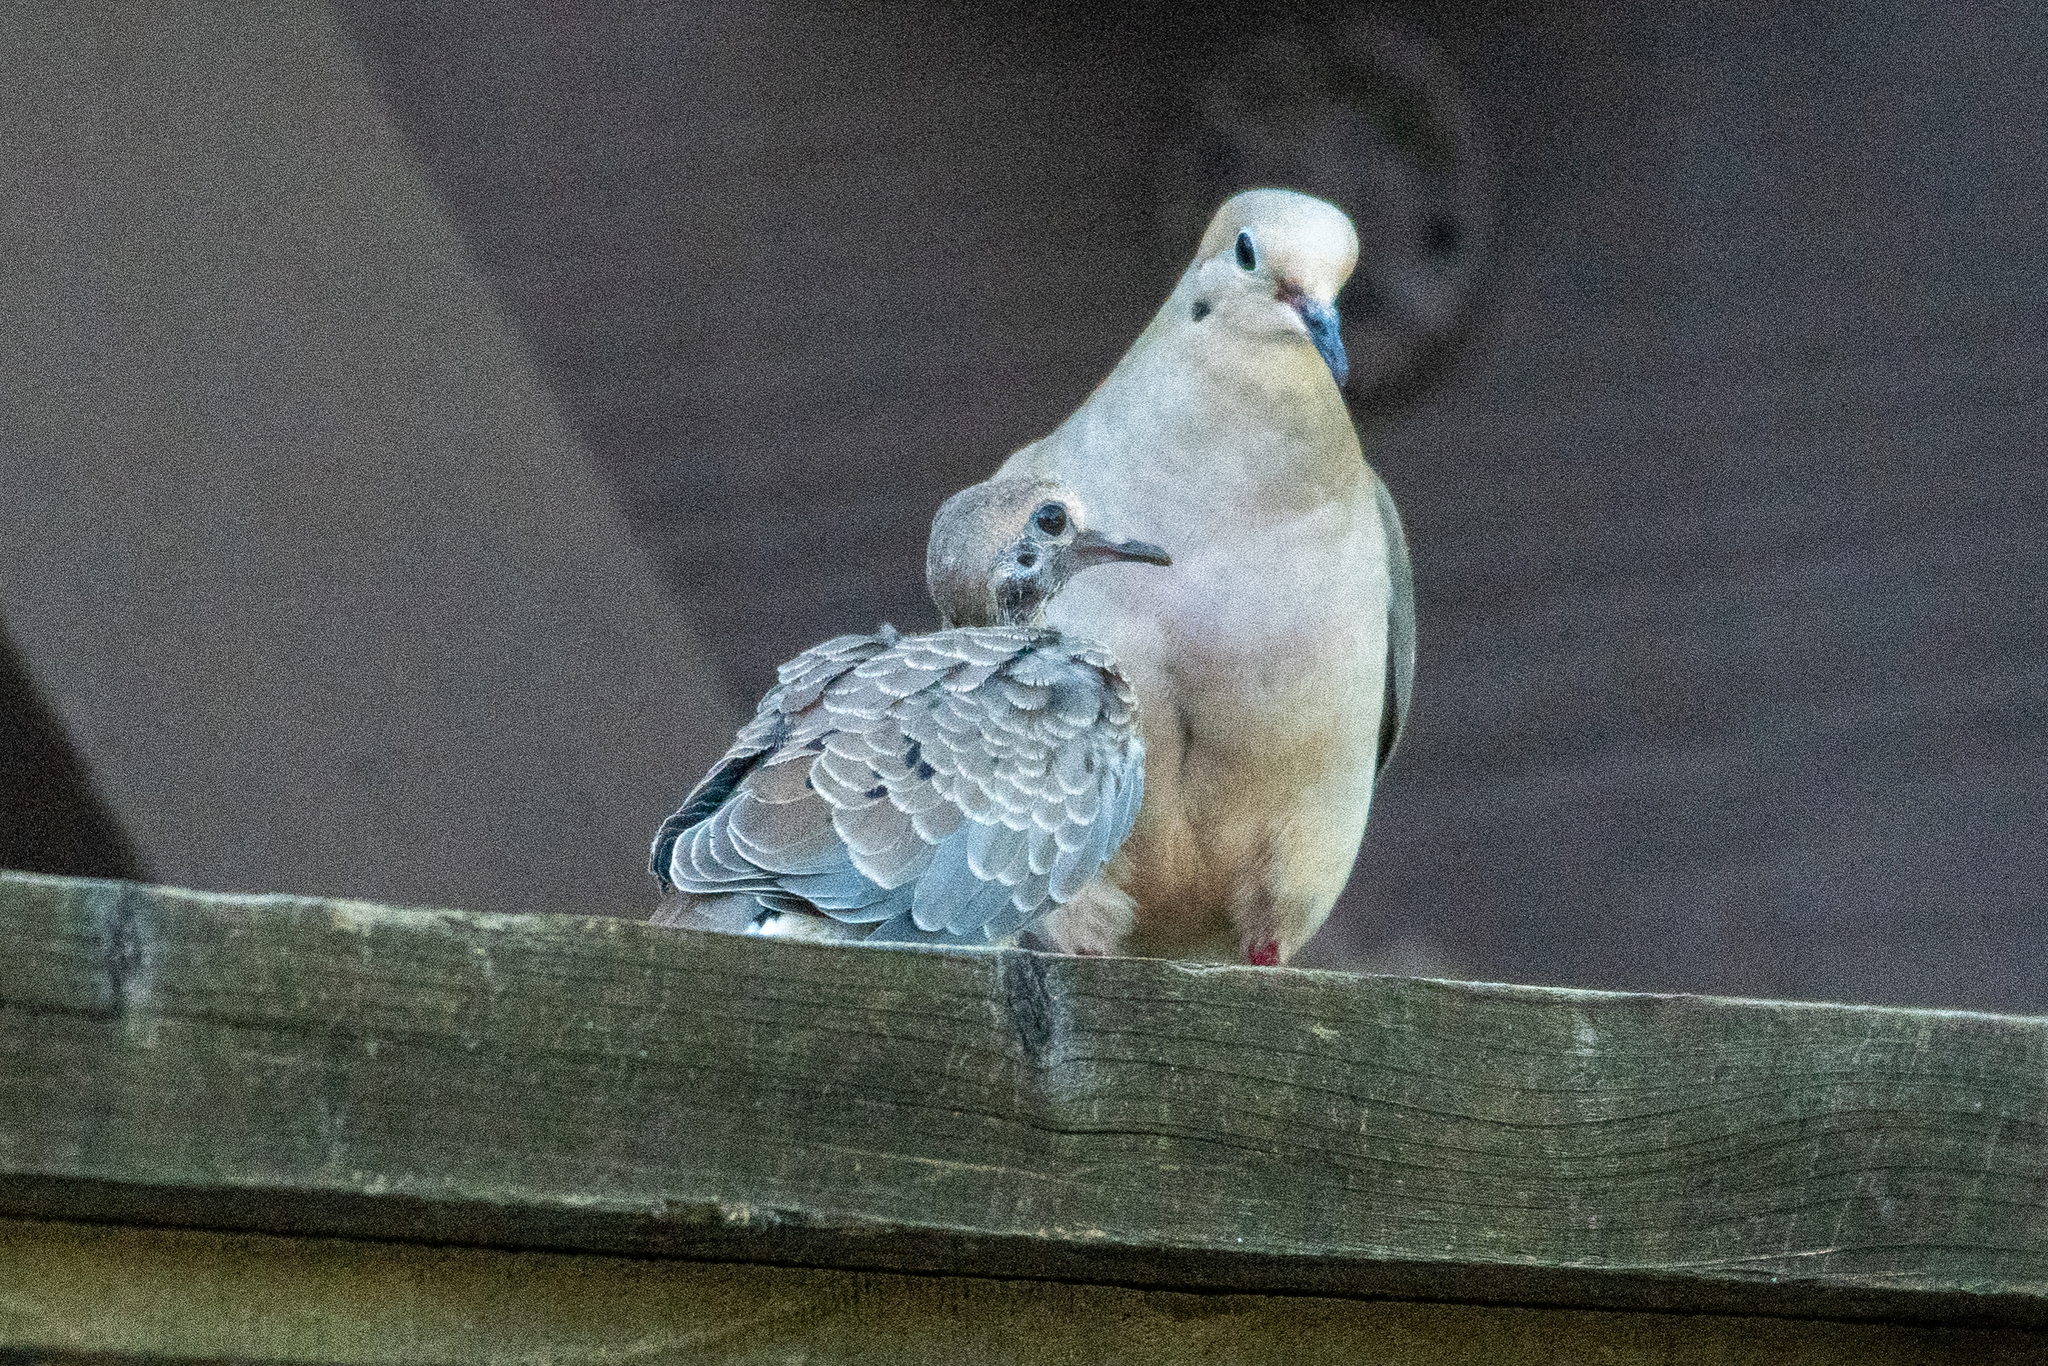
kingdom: Animalia
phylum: Chordata
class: Aves
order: Columbiformes
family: Columbidae
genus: Zenaida
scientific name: Zenaida macroura
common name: Mourning dove
